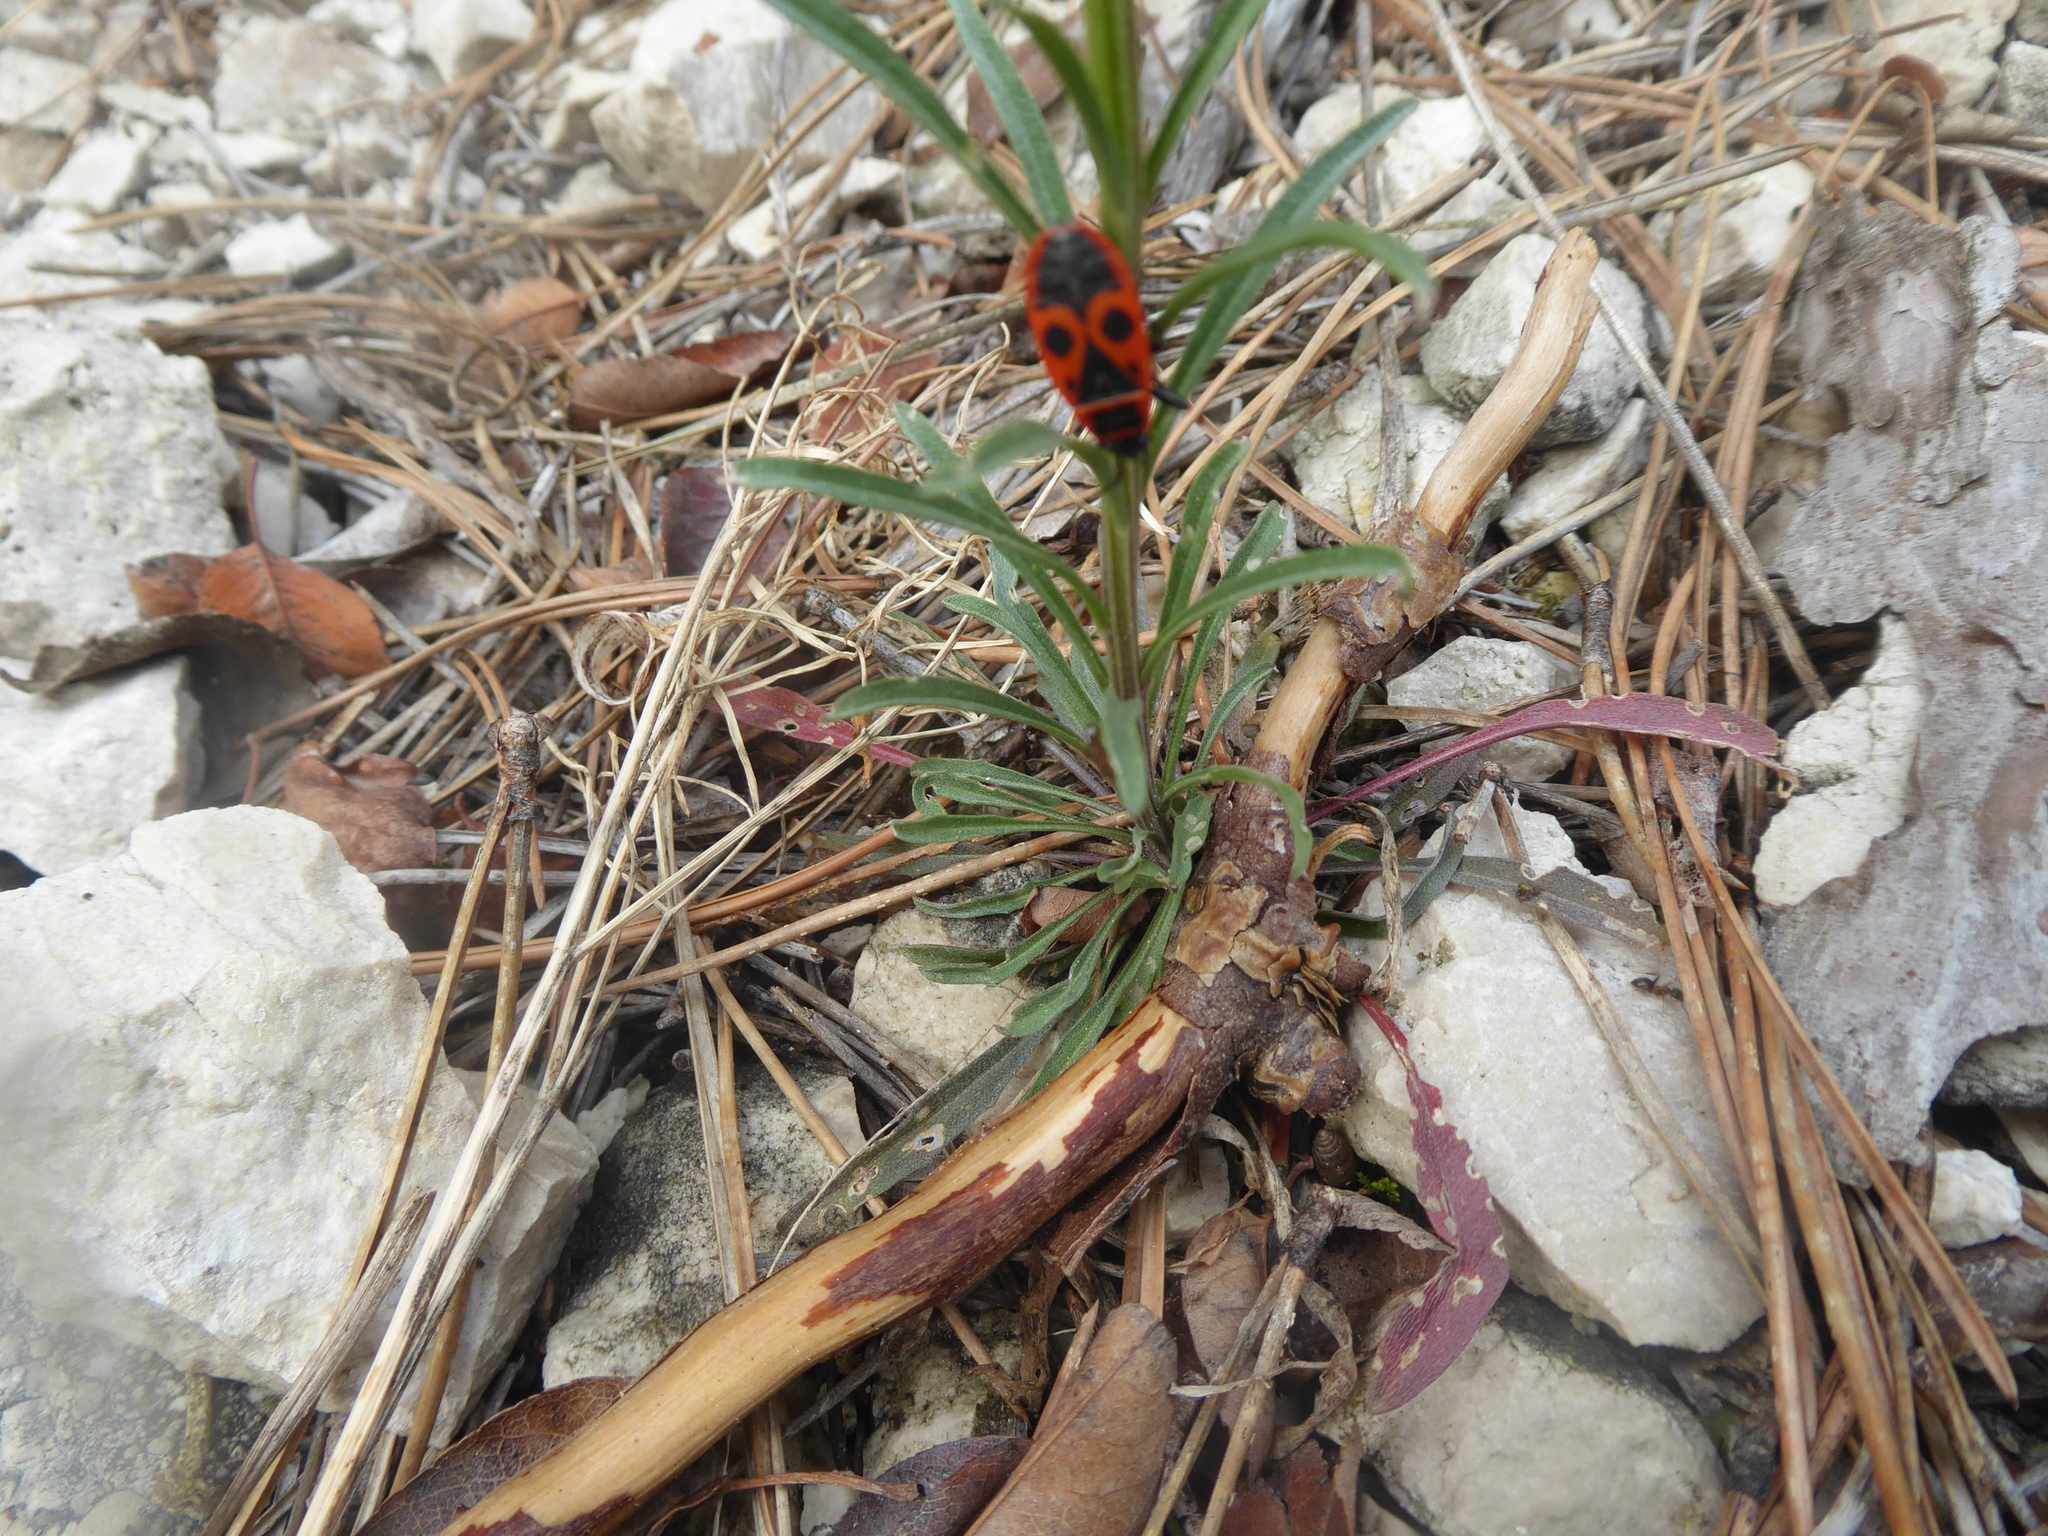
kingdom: Plantae
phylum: Tracheophyta
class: Magnoliopsida
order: Brassicales
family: Brassicaceae
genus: Erysimum
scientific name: Erysimum sylvestre
